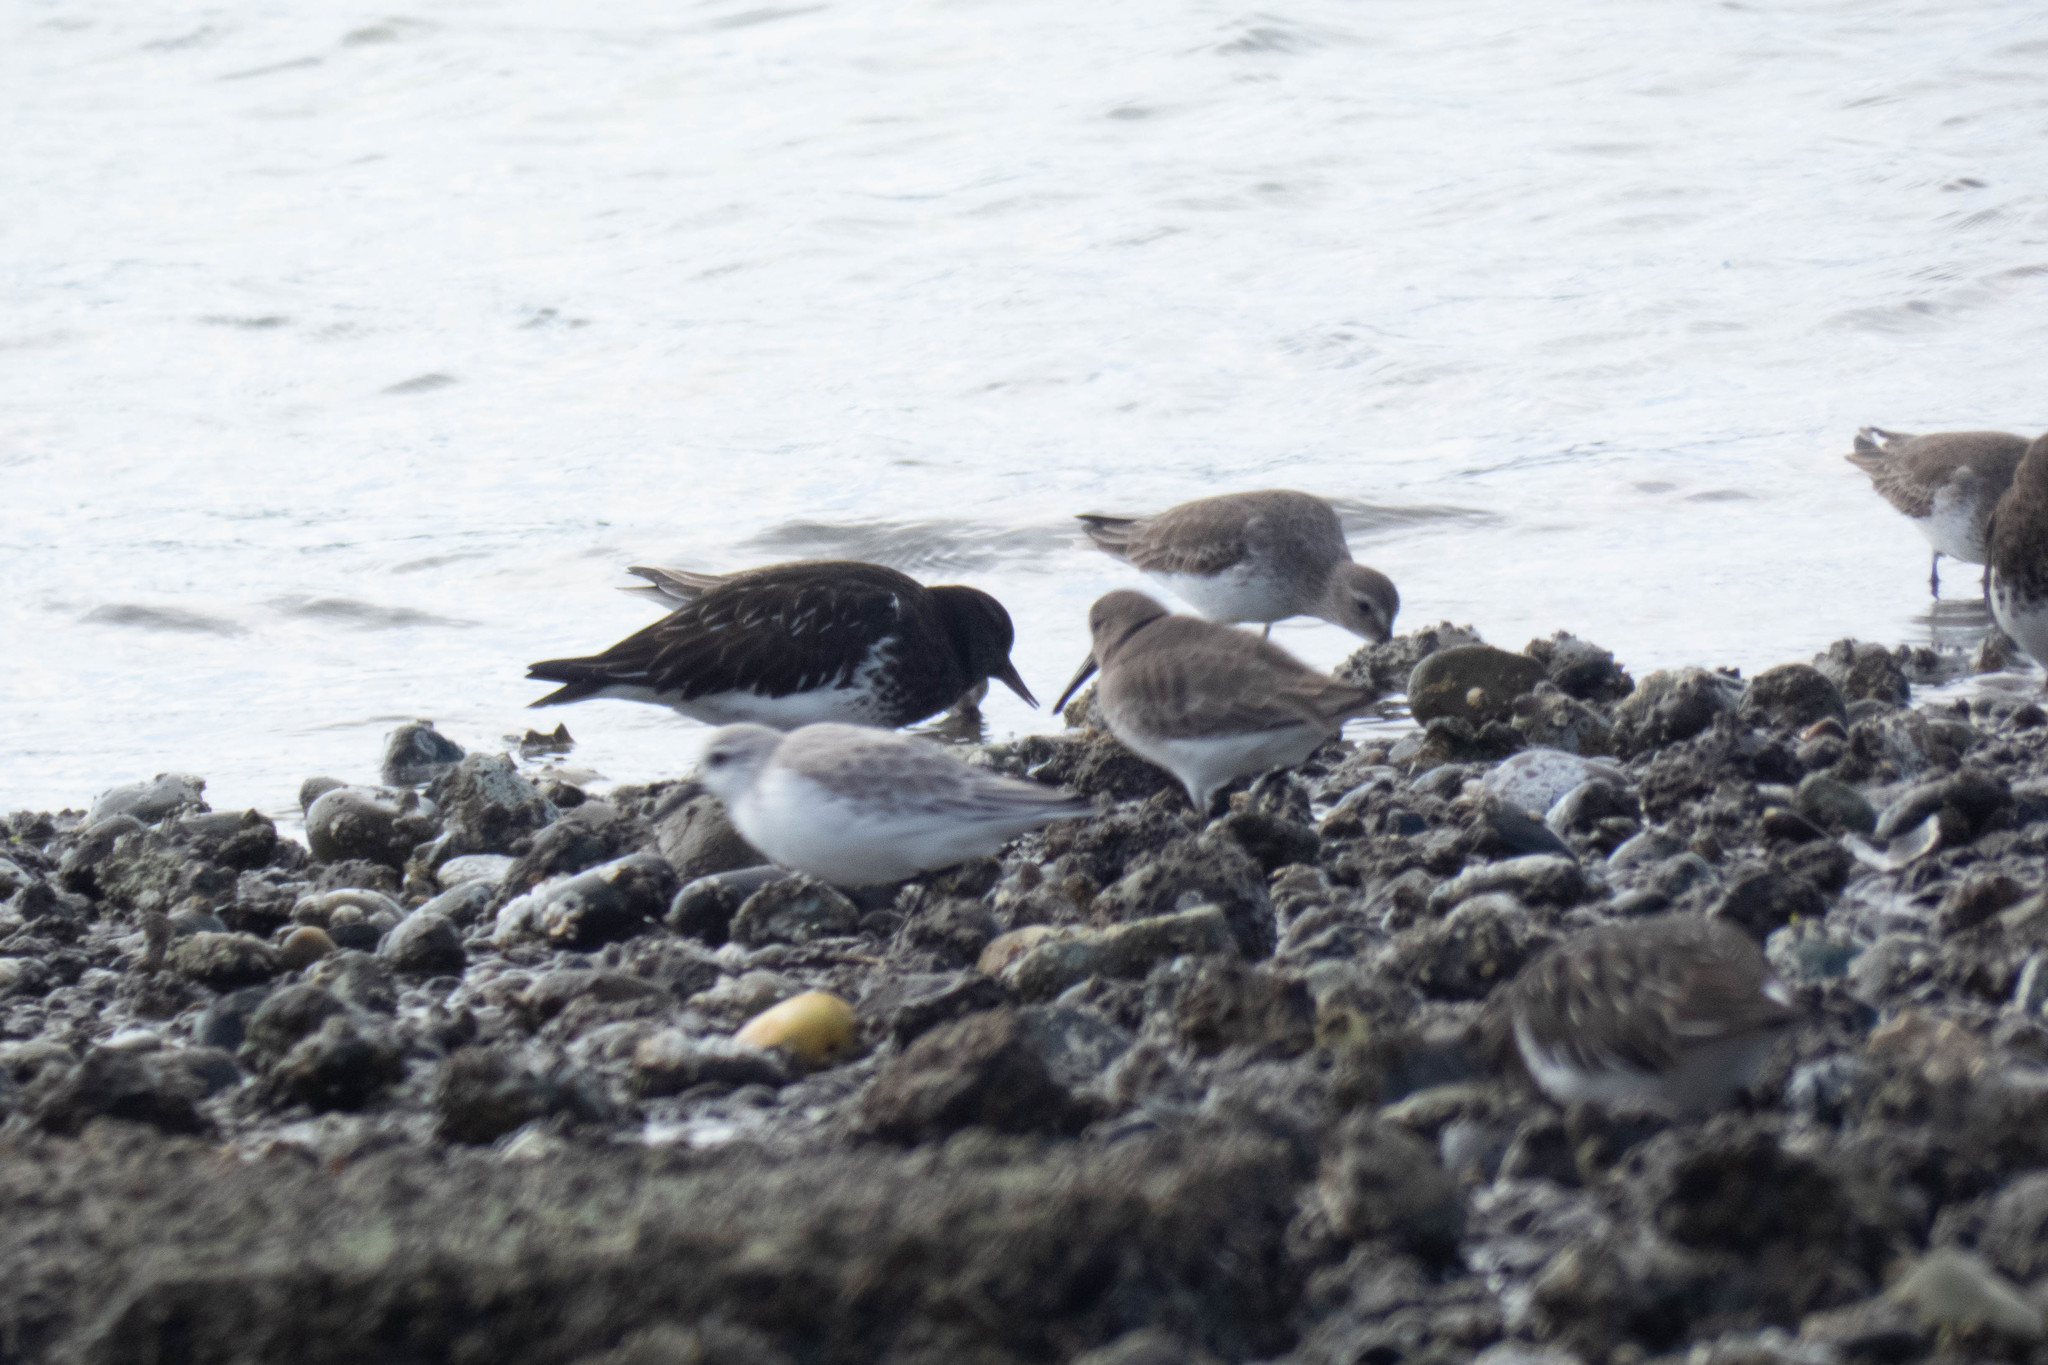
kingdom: Animalia
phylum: Chordata
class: Aves
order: Charadriiformes
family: Scolopacidae
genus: Arenaria
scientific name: Arenaria melanocephala
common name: Black turnstone
